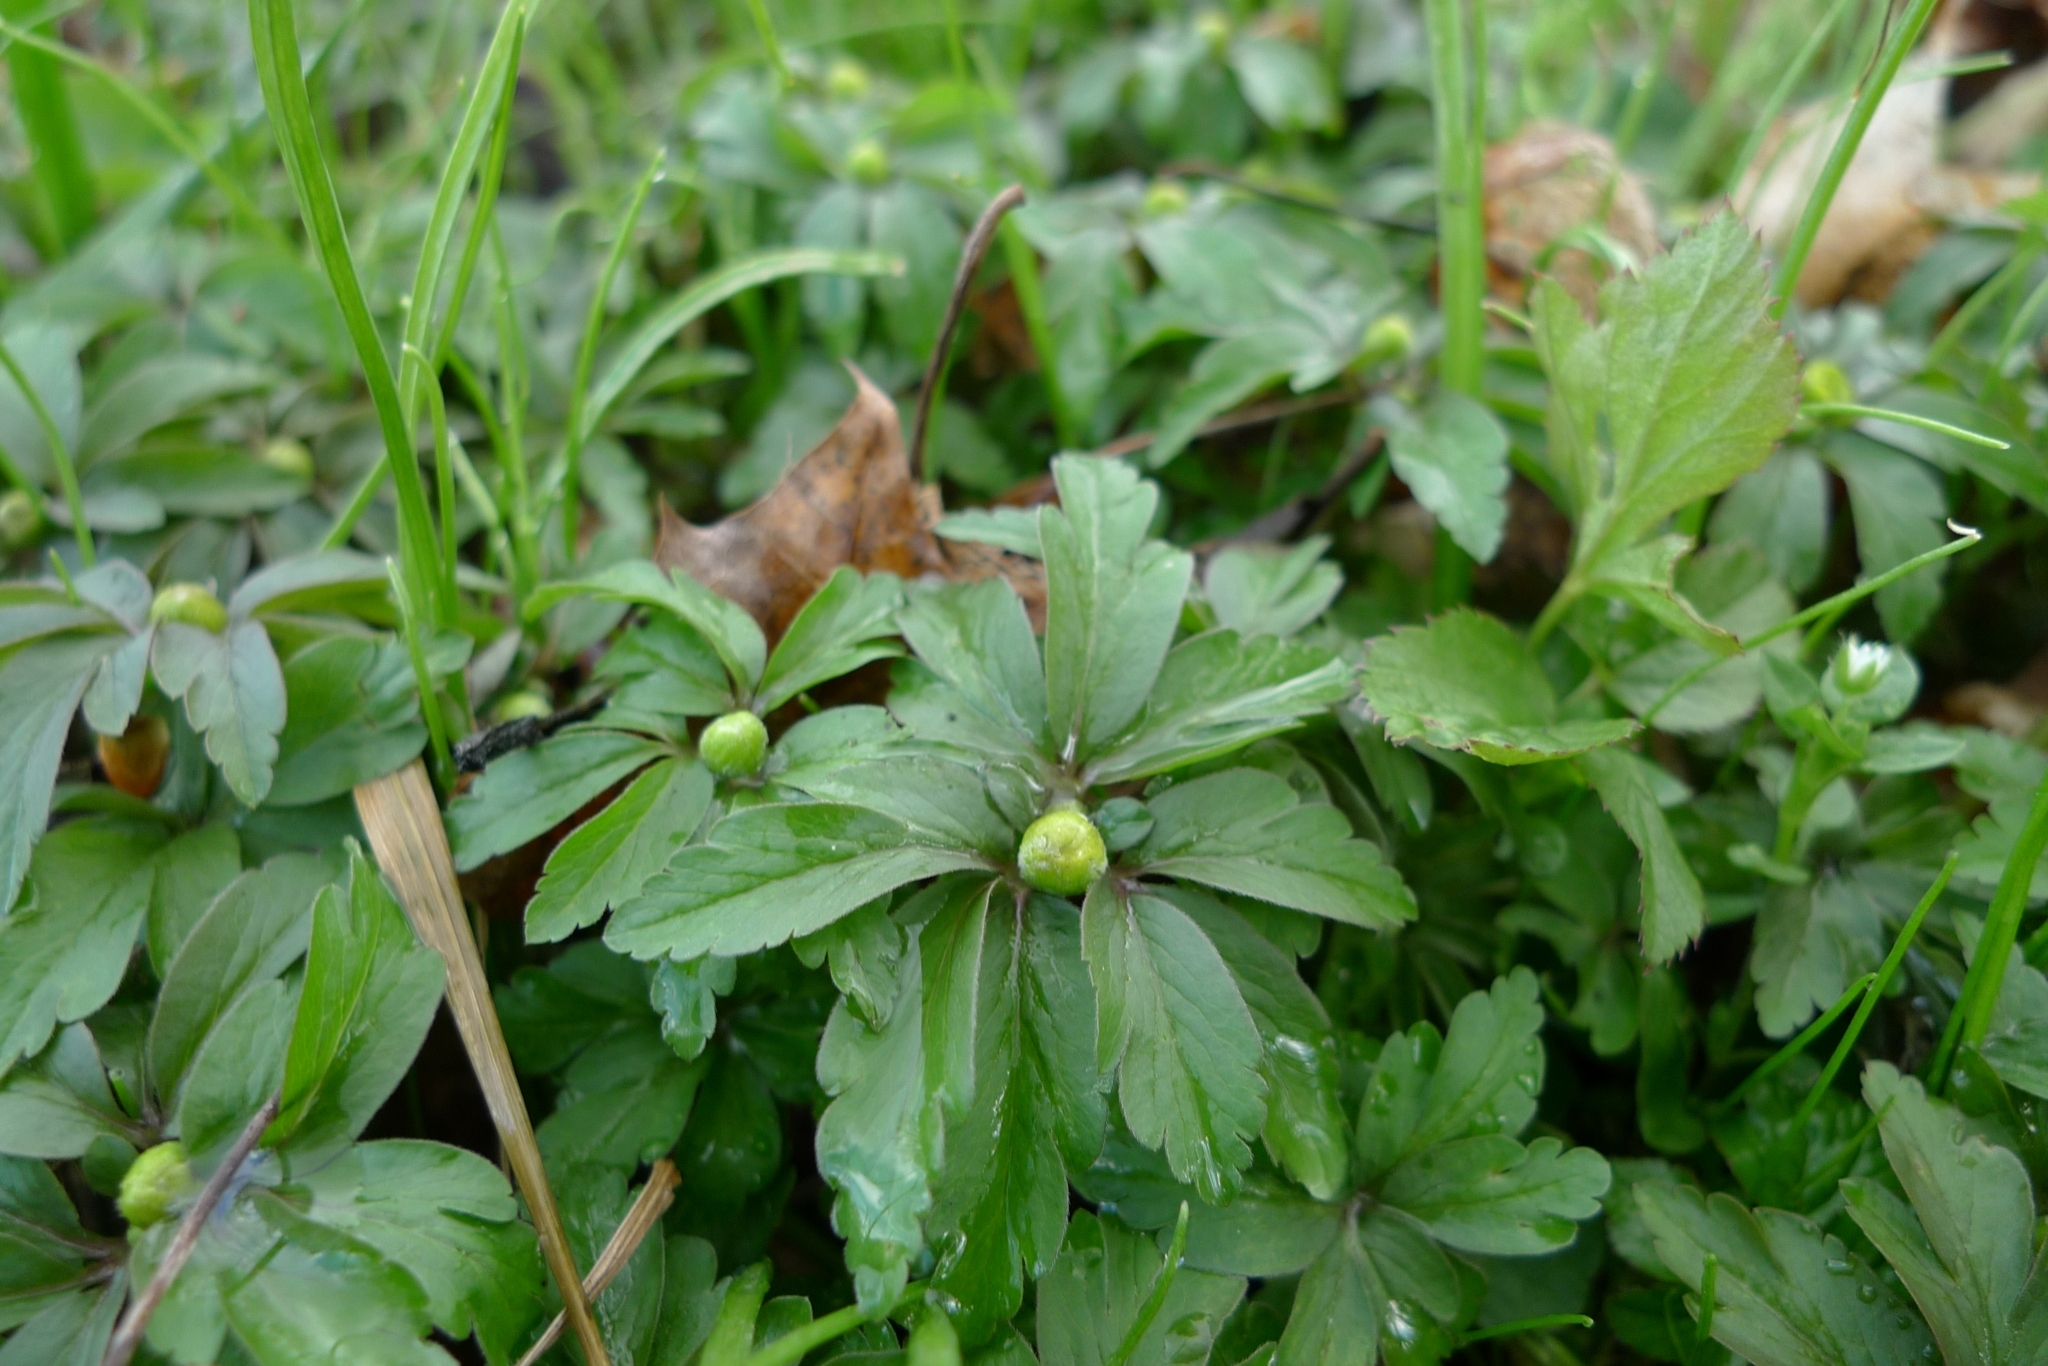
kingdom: Plantae
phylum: Tracheophyta
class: Magnoliopsida
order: Ranunculales
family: Ranunculaceae
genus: Anemone
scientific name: Anemone ranunculoides
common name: Yellow anemone
